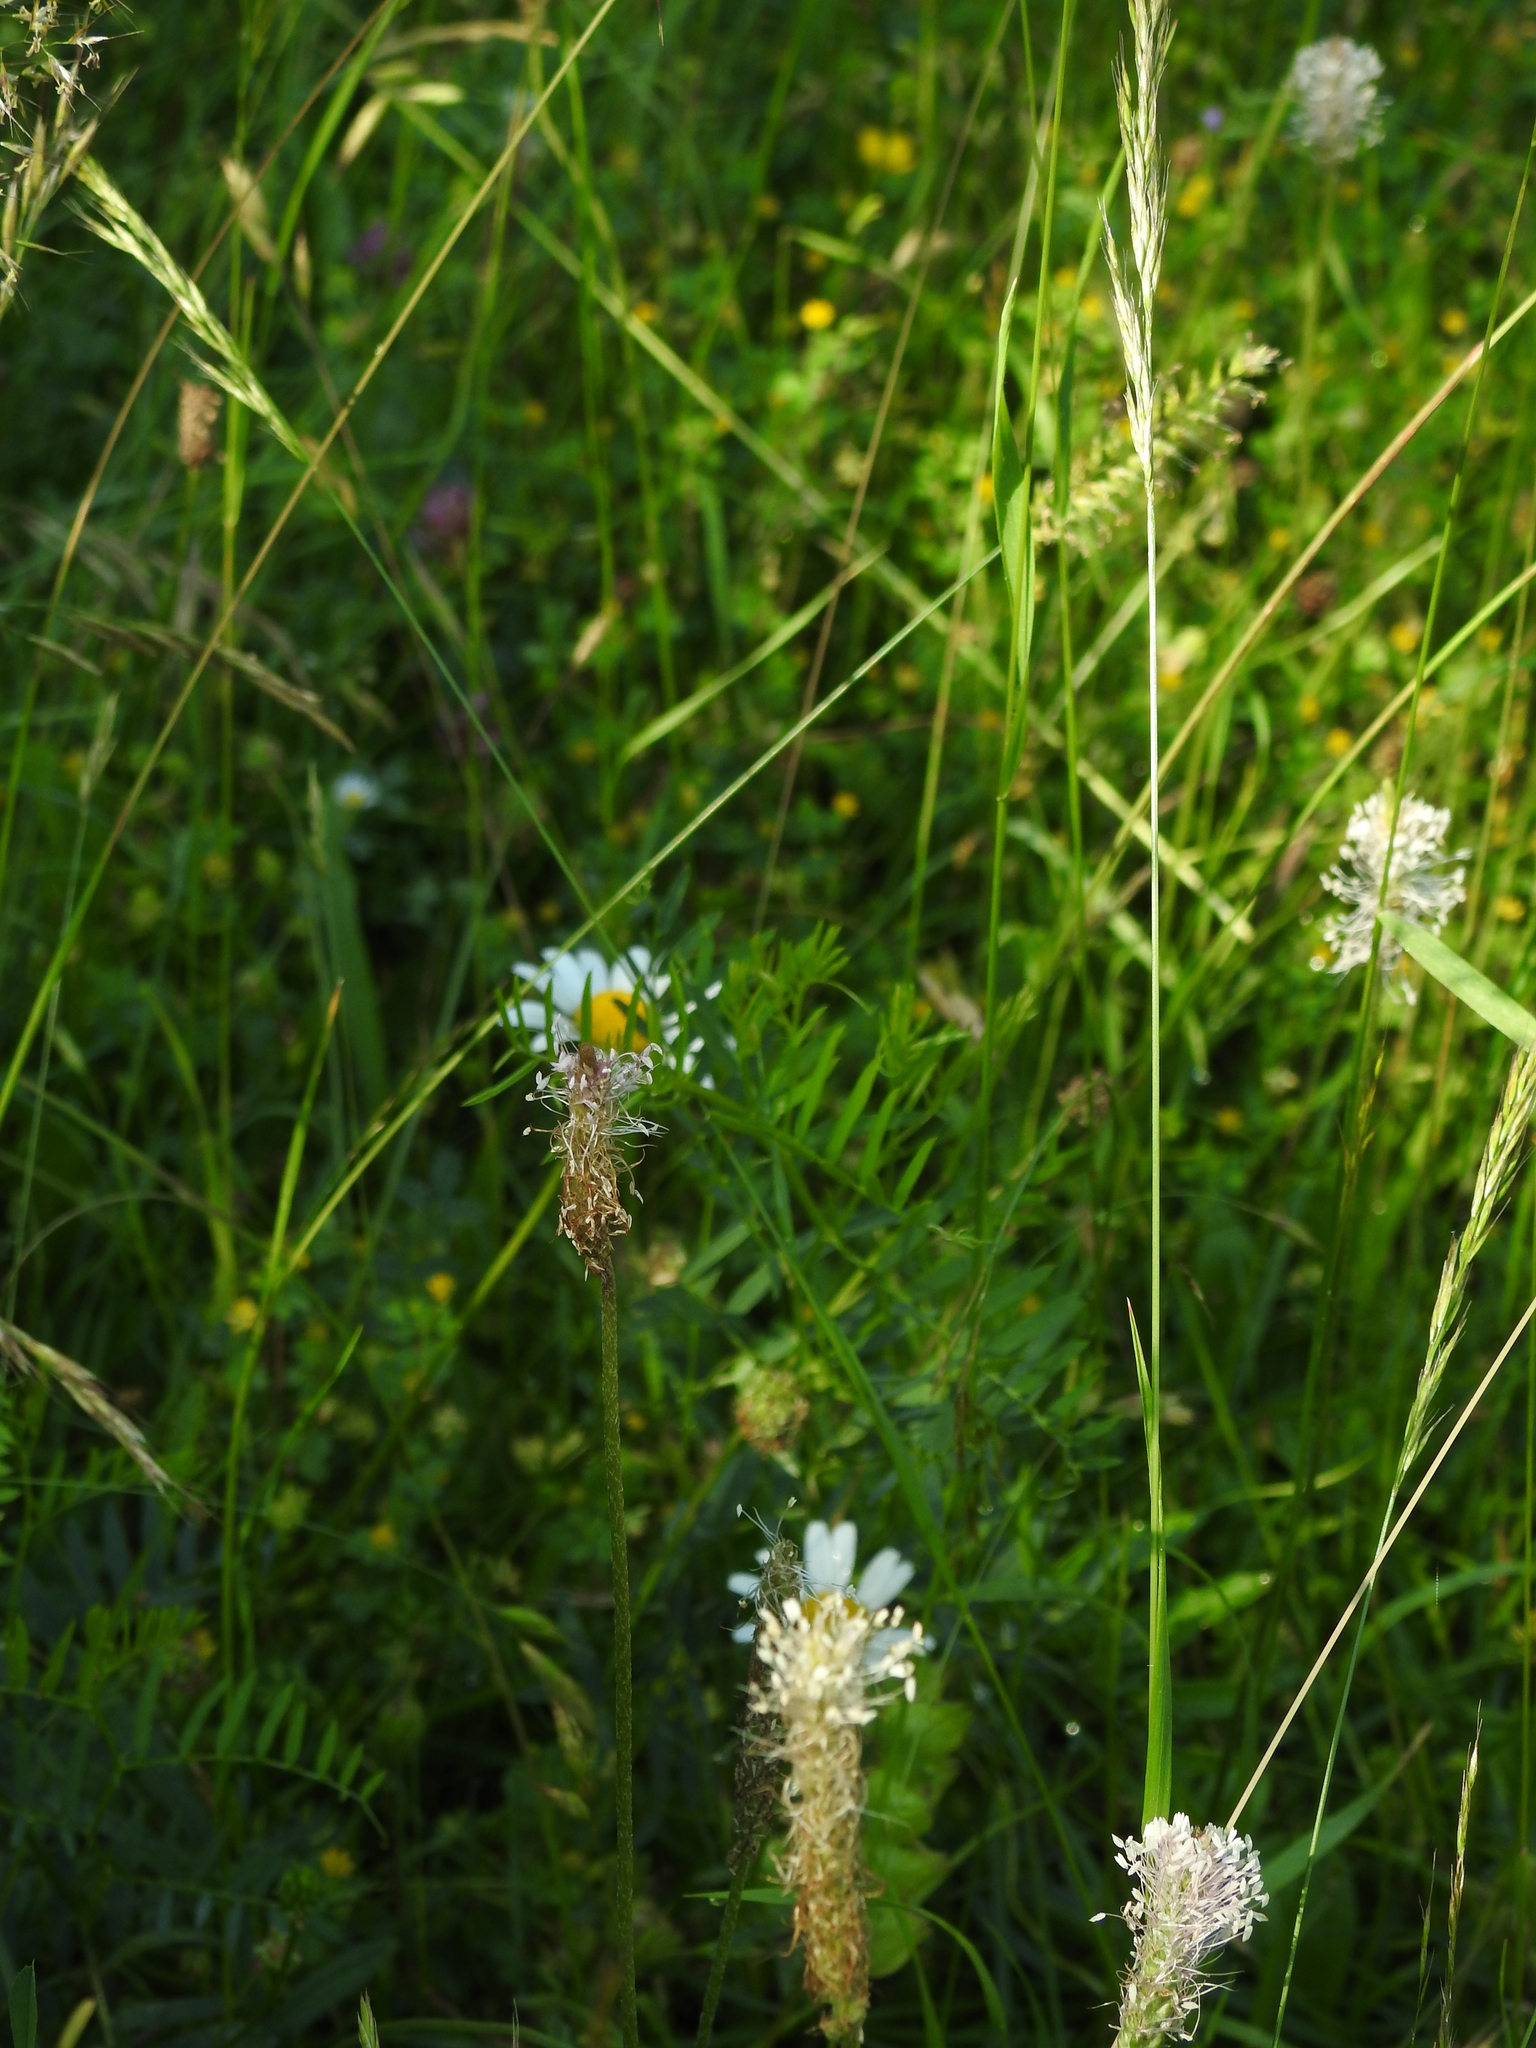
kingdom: Plantae
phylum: Tracheophyta
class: Liliopsida
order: Poales
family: Poaceae
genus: Cynosurus
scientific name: Cynosurus cristatus
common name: Crested dog's-tail
